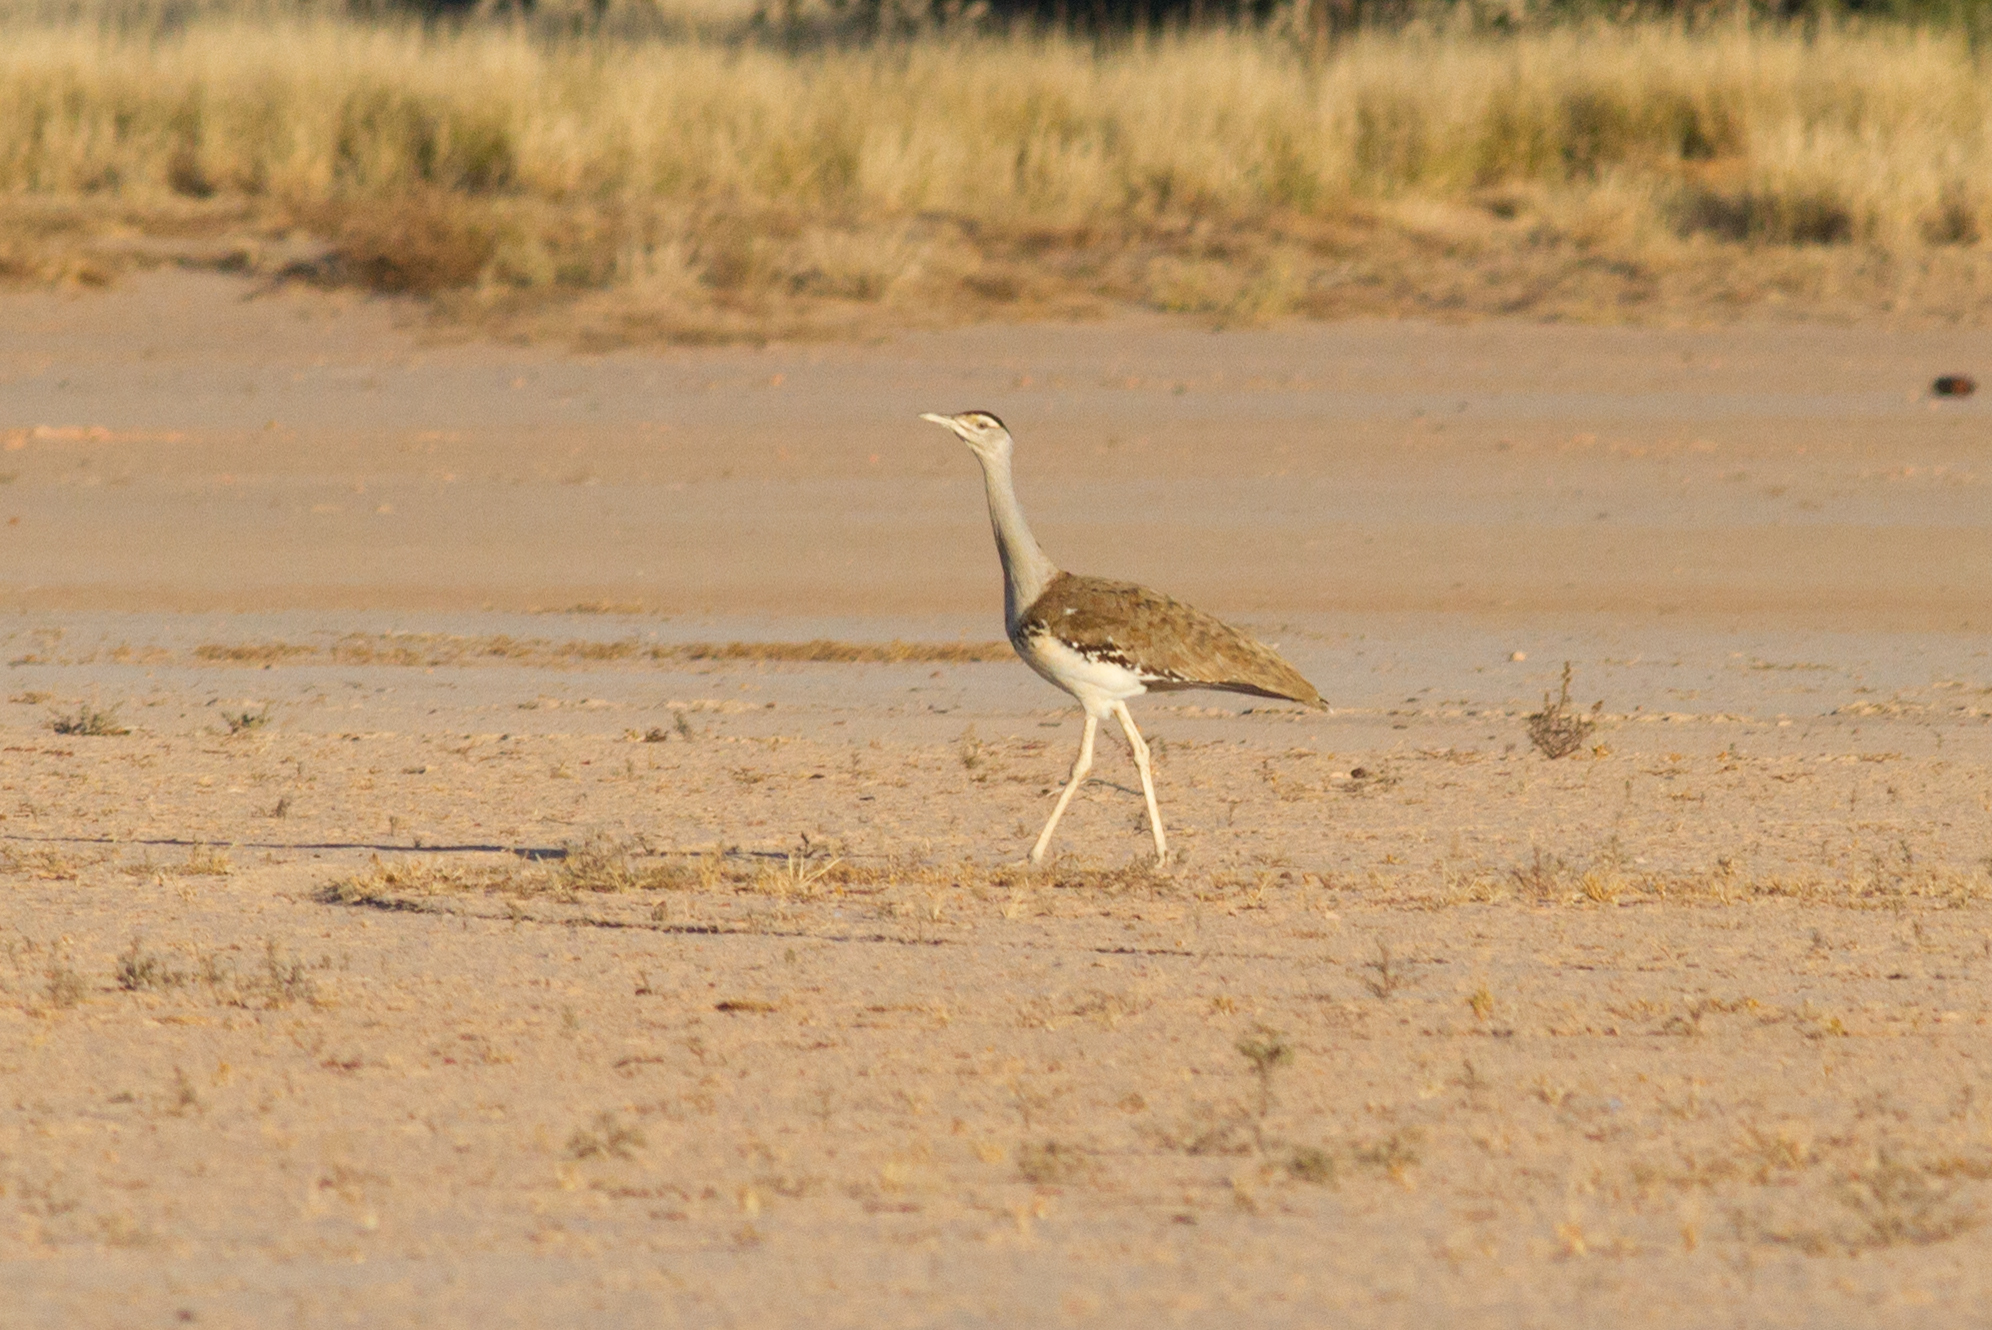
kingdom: Animalia
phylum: Chordata
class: Aves
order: Otidiformes
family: Otididae
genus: Ardeotis
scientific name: Ardeotis australis
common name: Australian bustard
